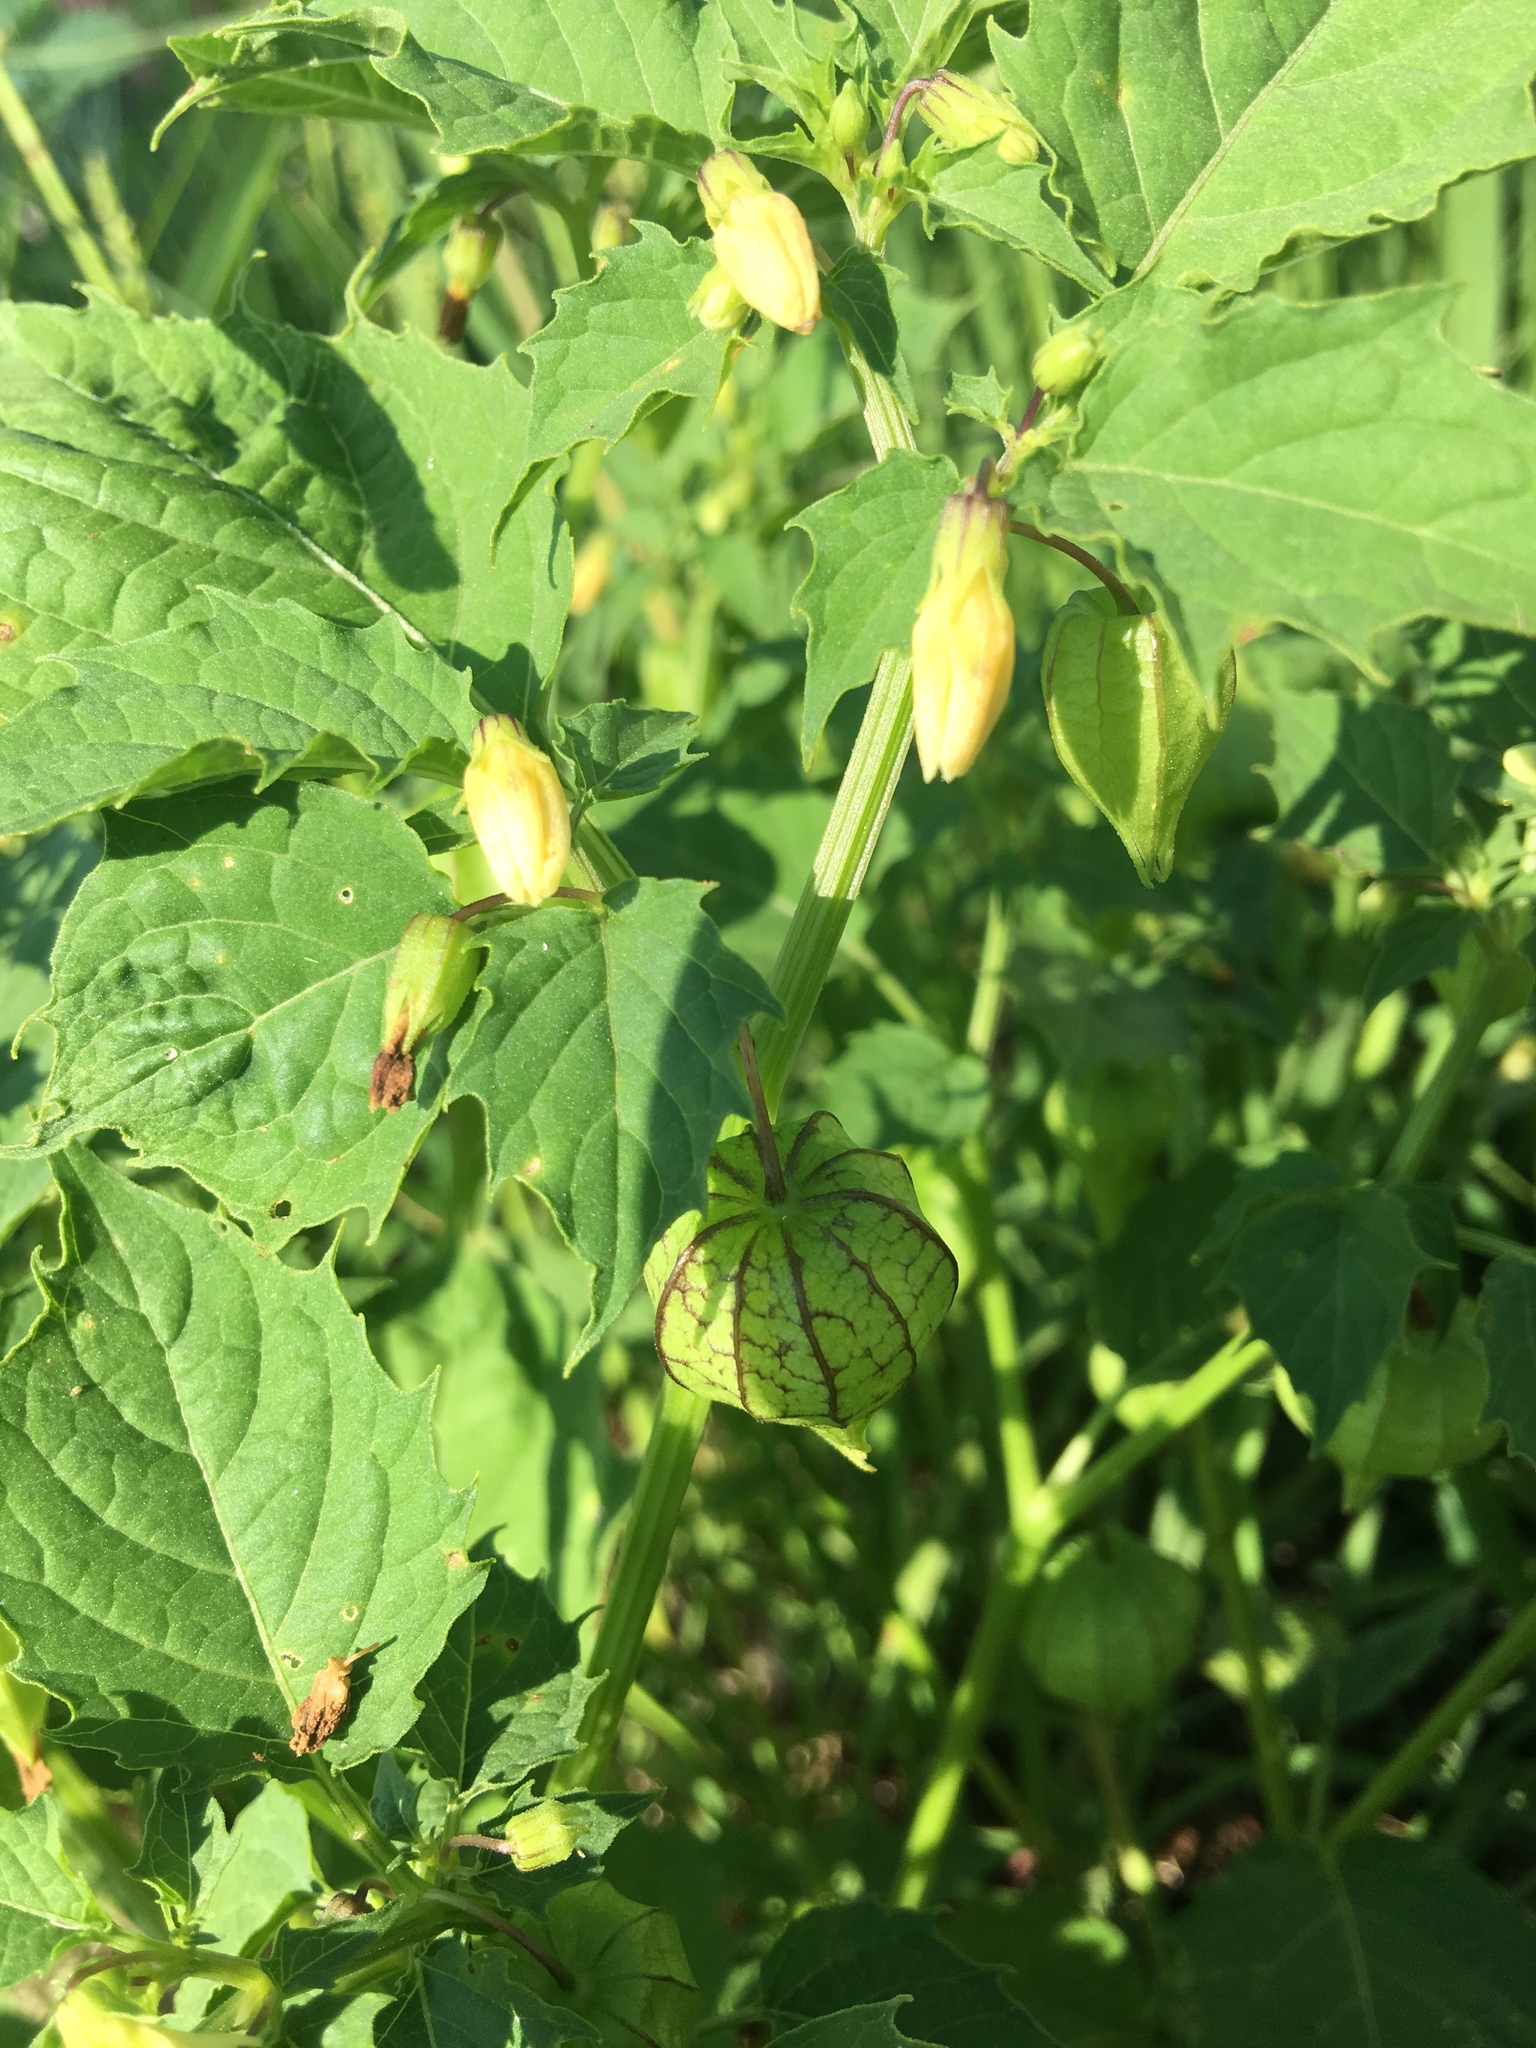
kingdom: Plantae
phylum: Tracheophyta
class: Magnoliopsida
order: Solanales
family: Solanaceae
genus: Physalis
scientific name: Physalis angulata
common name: Angular winter-cherry
